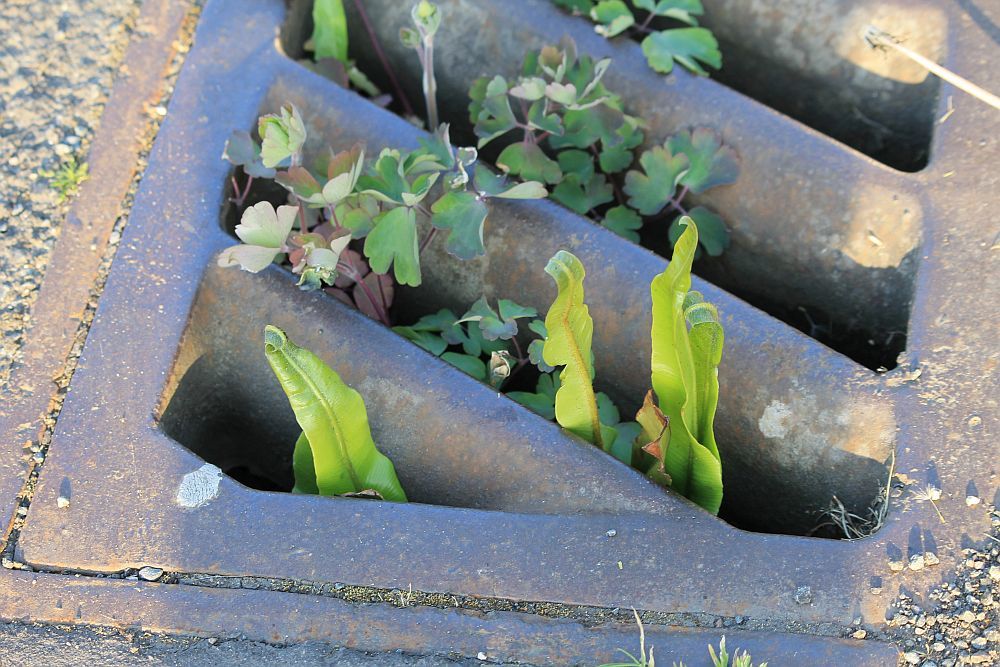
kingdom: Plantae
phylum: Tracheophyta
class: Polypodiopsida
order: Polypodiales
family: Aspleniaceae
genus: Asplenium
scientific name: Asplenium scolopendrium
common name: Hart's-tongue fern
